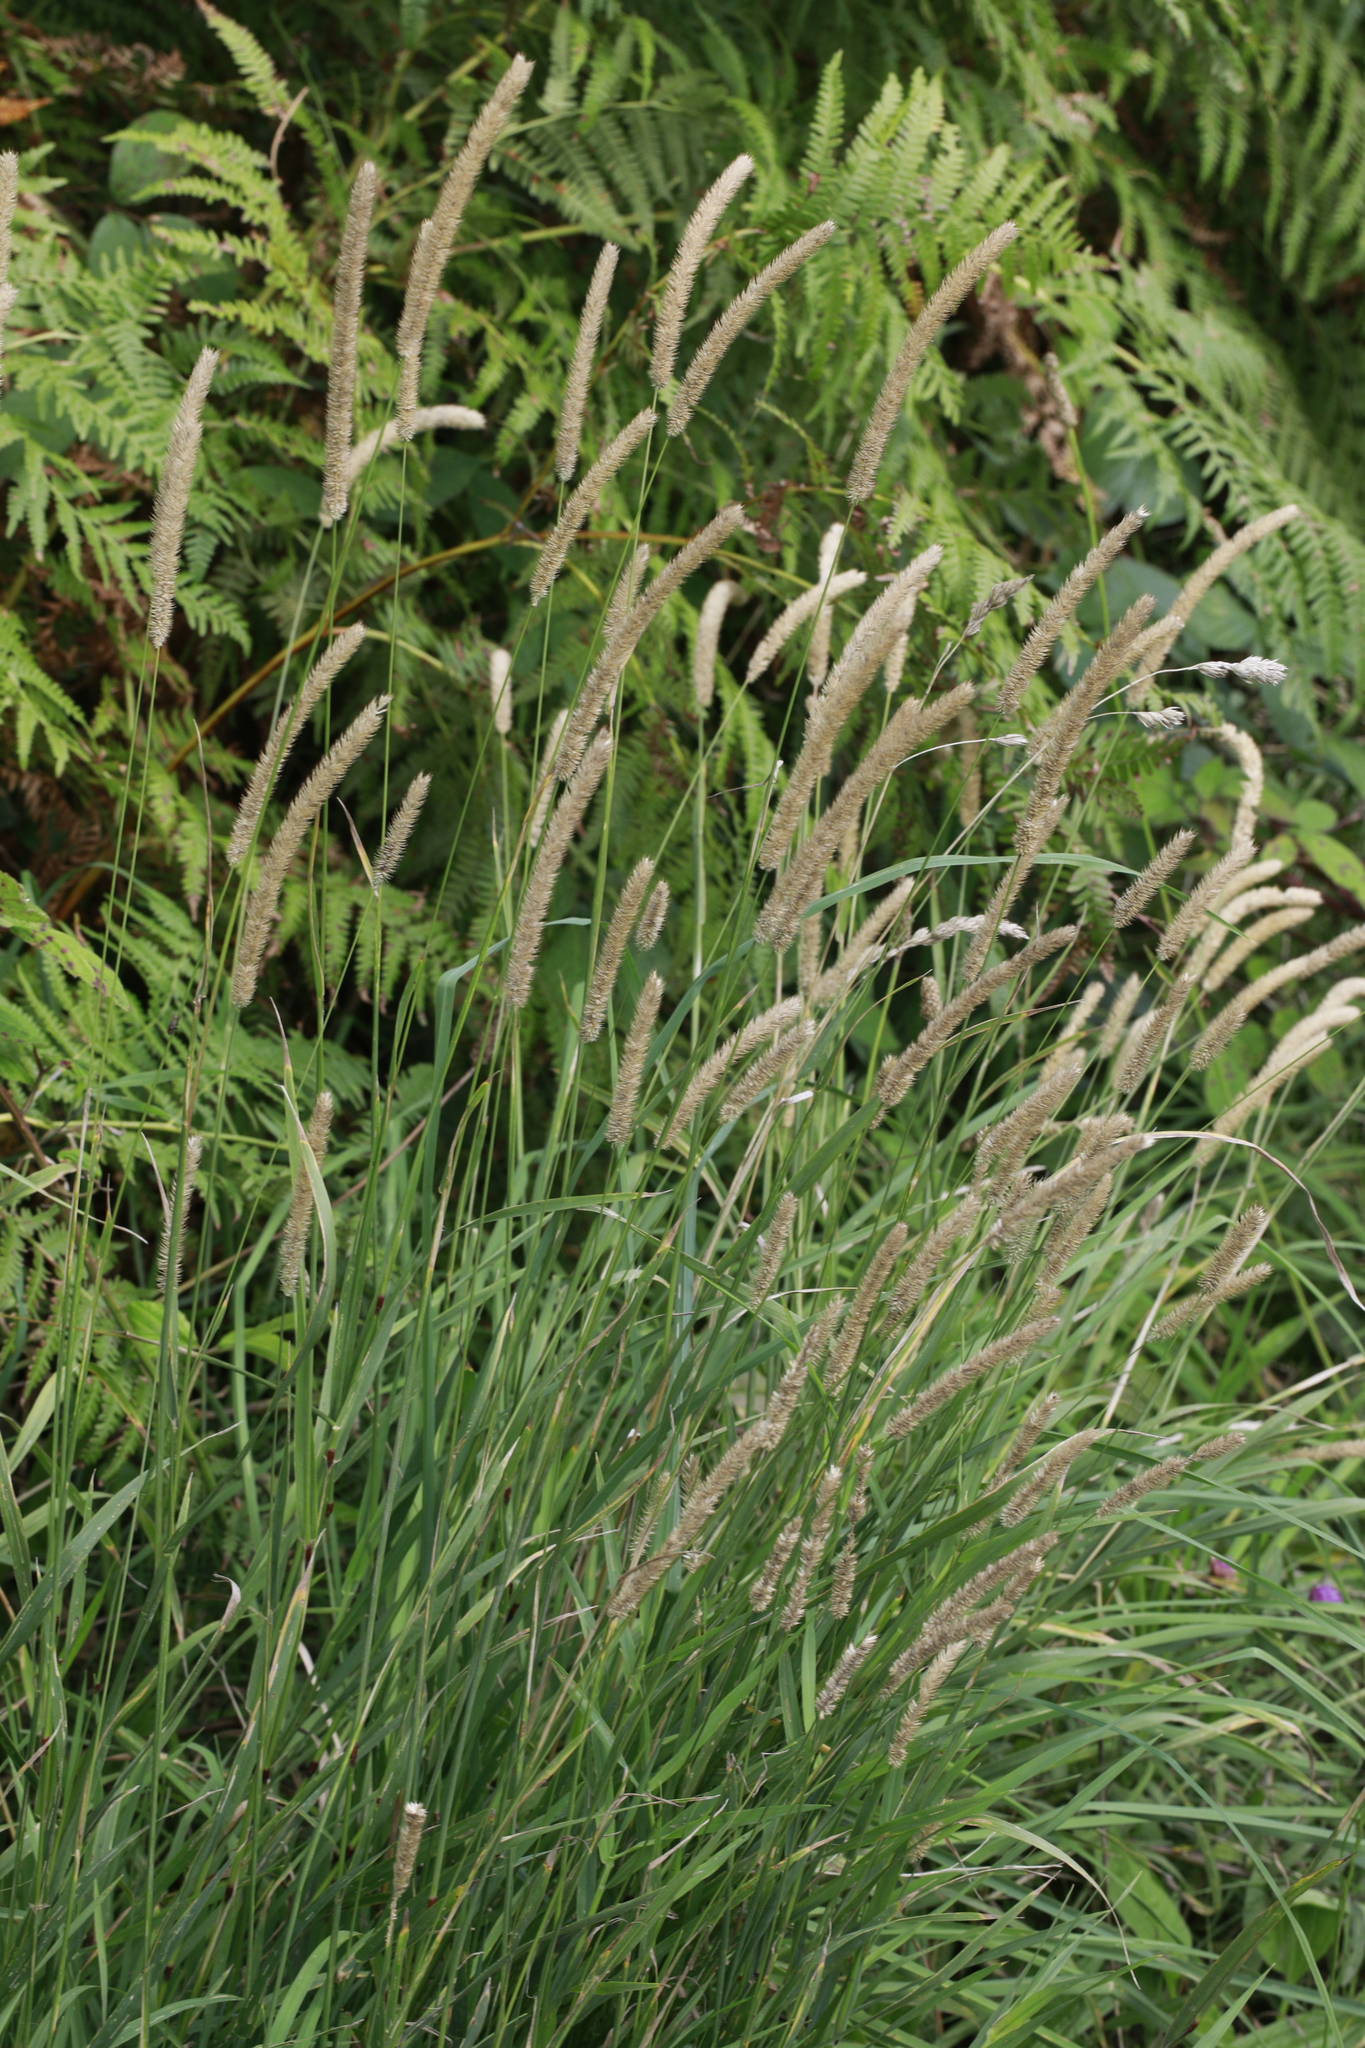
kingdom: Plantae
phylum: Tracheophyta
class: Liliopsida
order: Poales
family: Poaceae
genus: Phleum
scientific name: Phleum pratense
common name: Timothy grass
